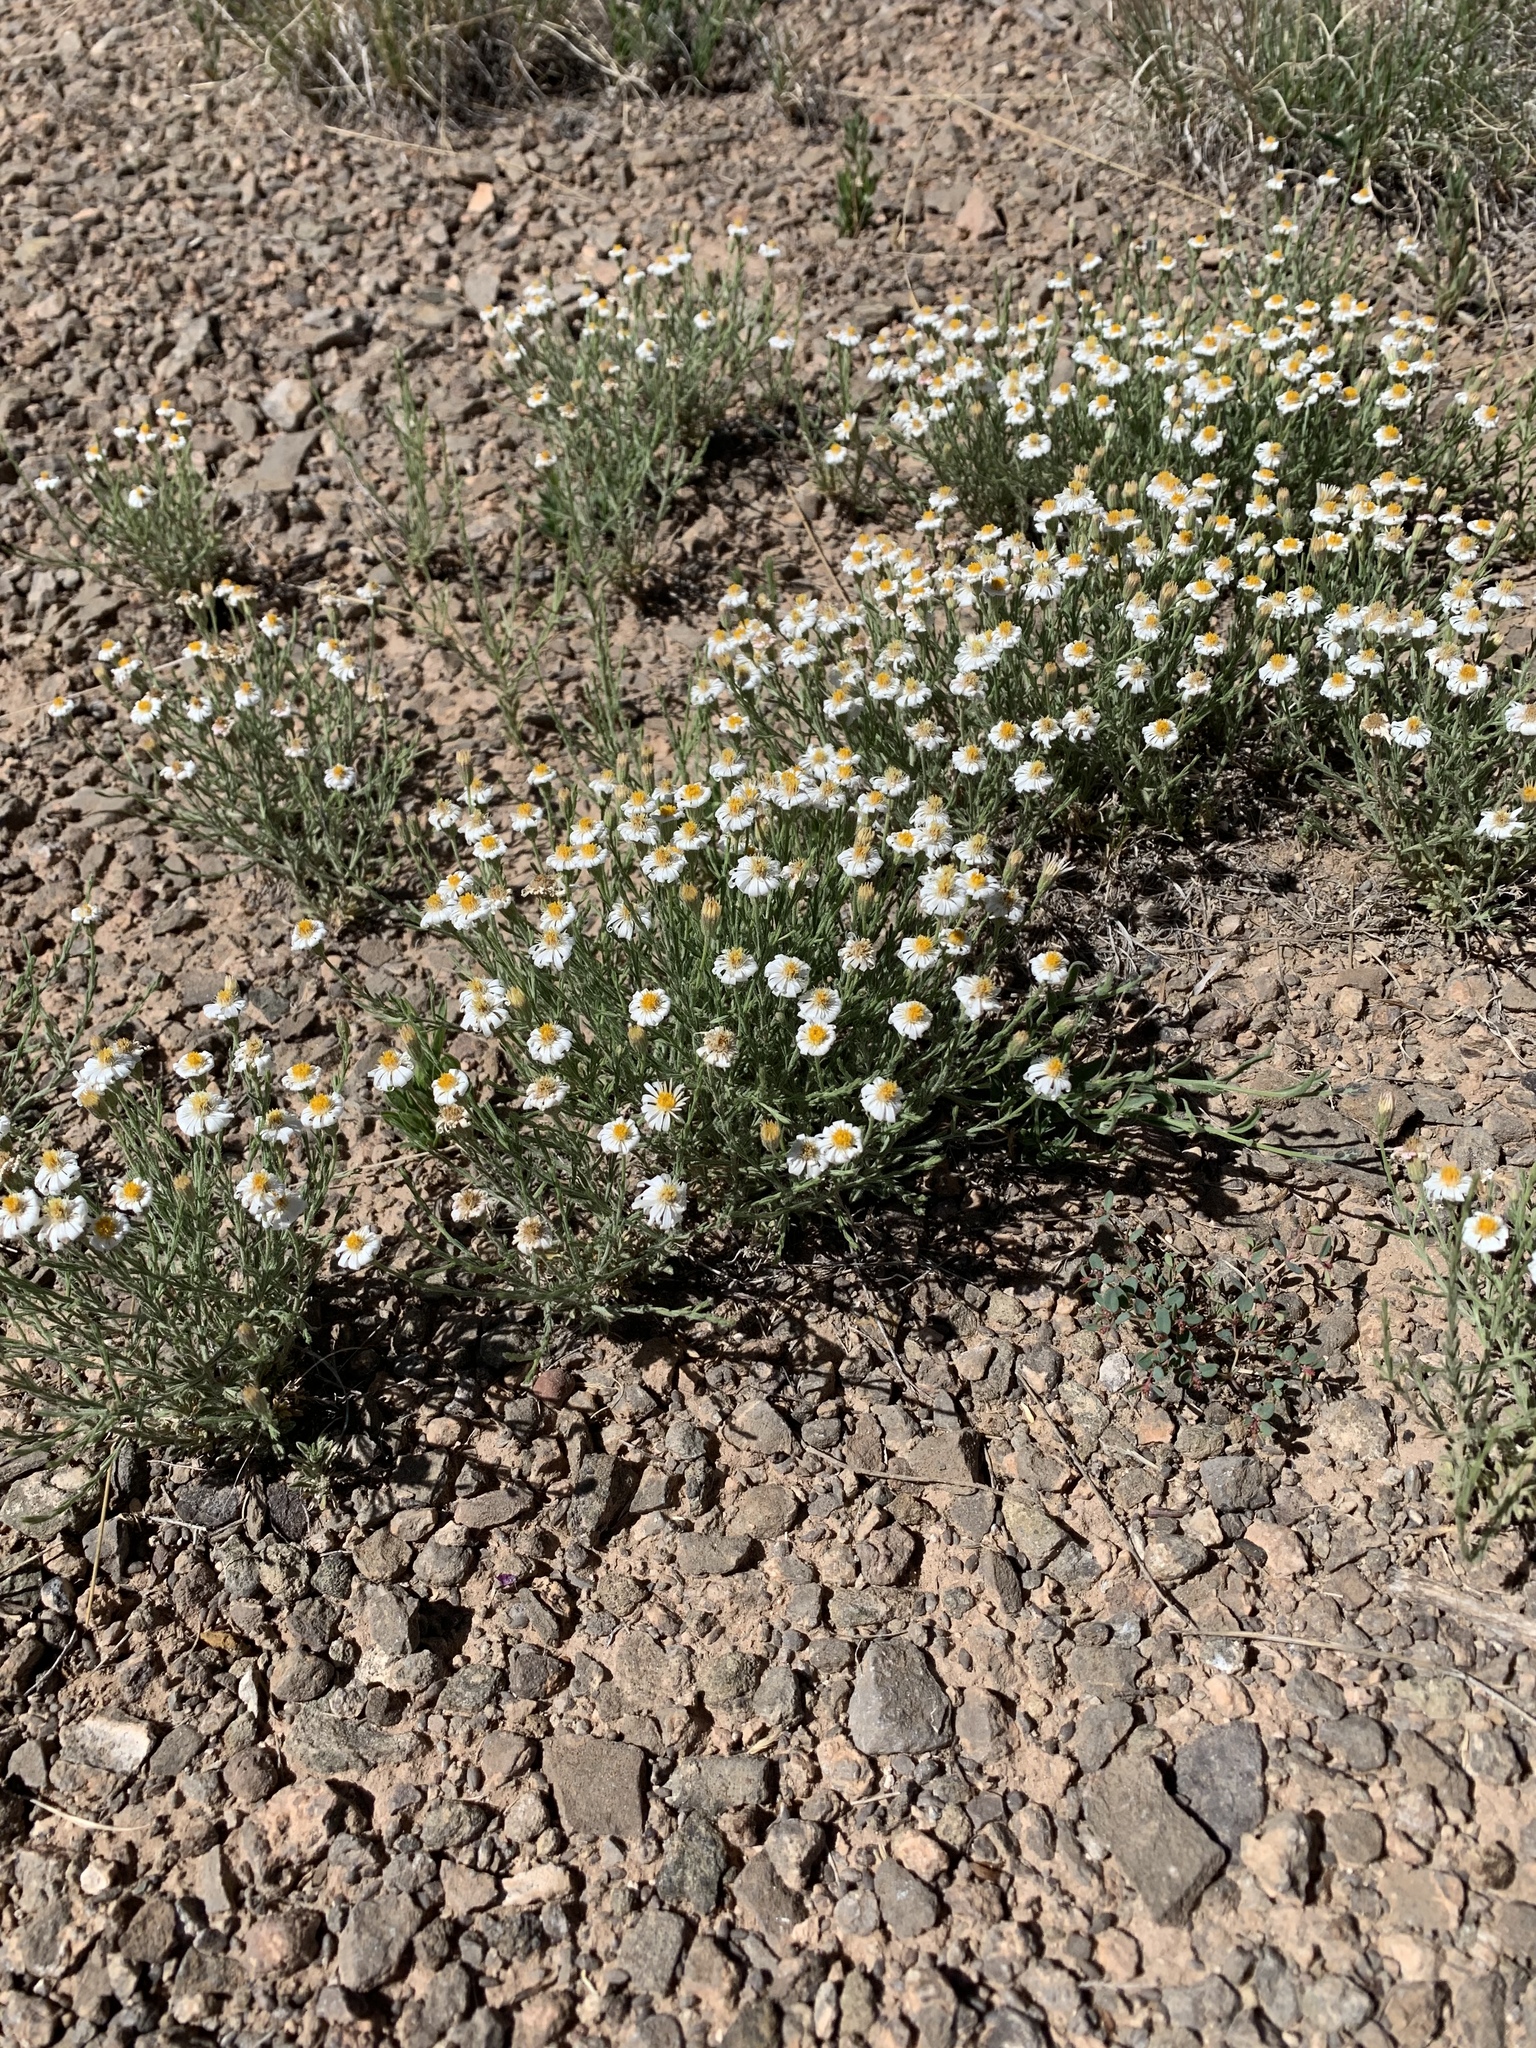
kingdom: Plantae
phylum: Tracheophyta
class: Magnoliopsida
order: Asterales
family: Asteraceae
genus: Chaetopappa
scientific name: Chaetopappa ericoides
